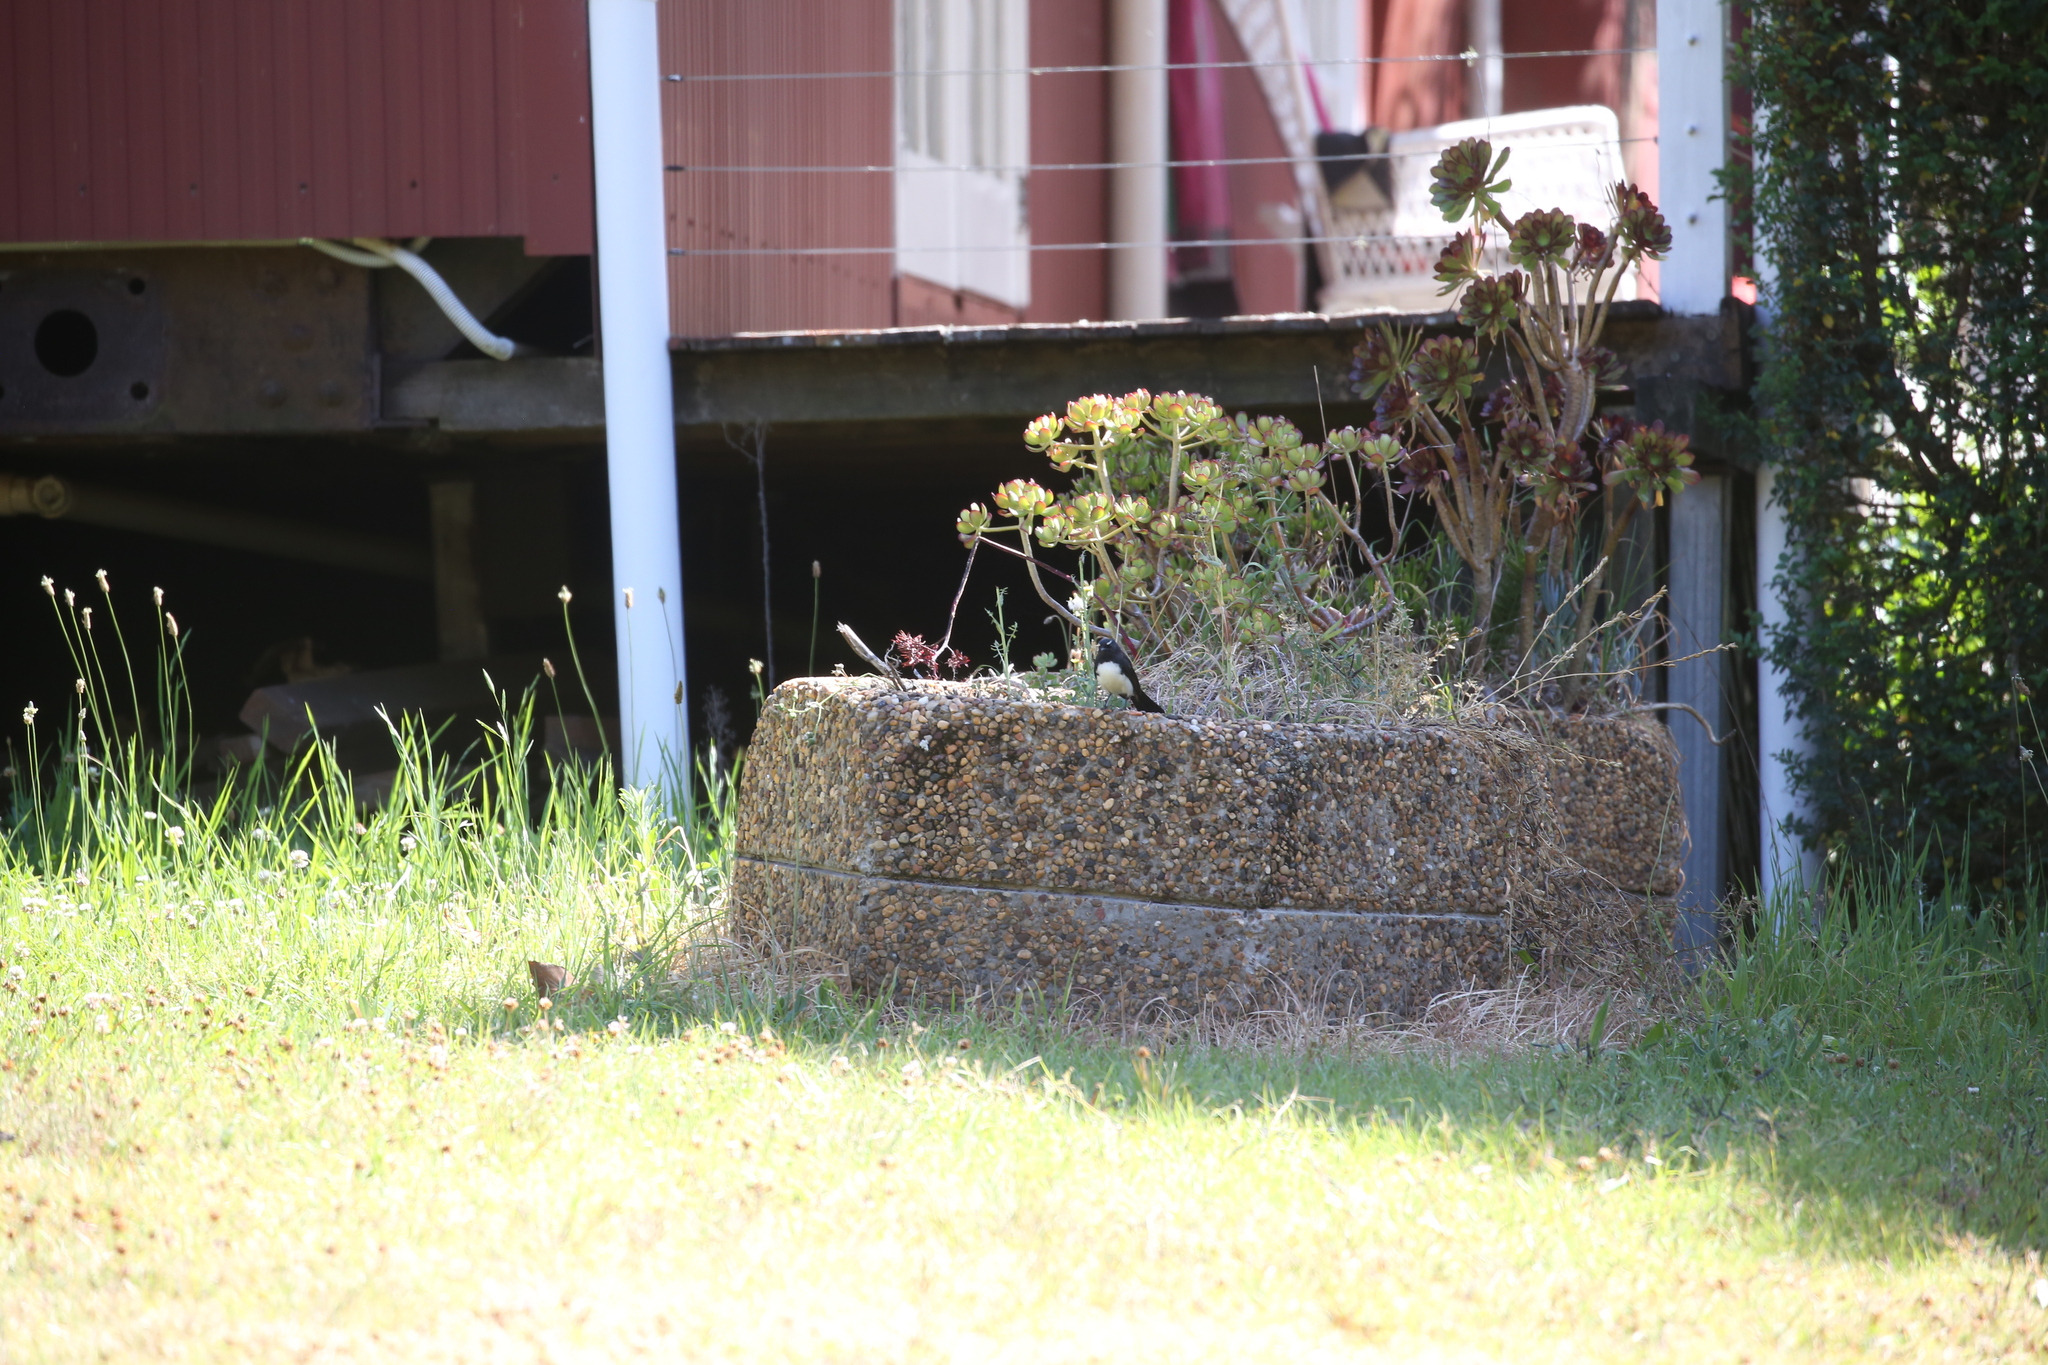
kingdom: Animalia
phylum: Chordata
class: Aves
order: Passeriformes
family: Rhipiduridae
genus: Rhipidura
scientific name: Rhipidura leucophrys
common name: Willie wagtail
